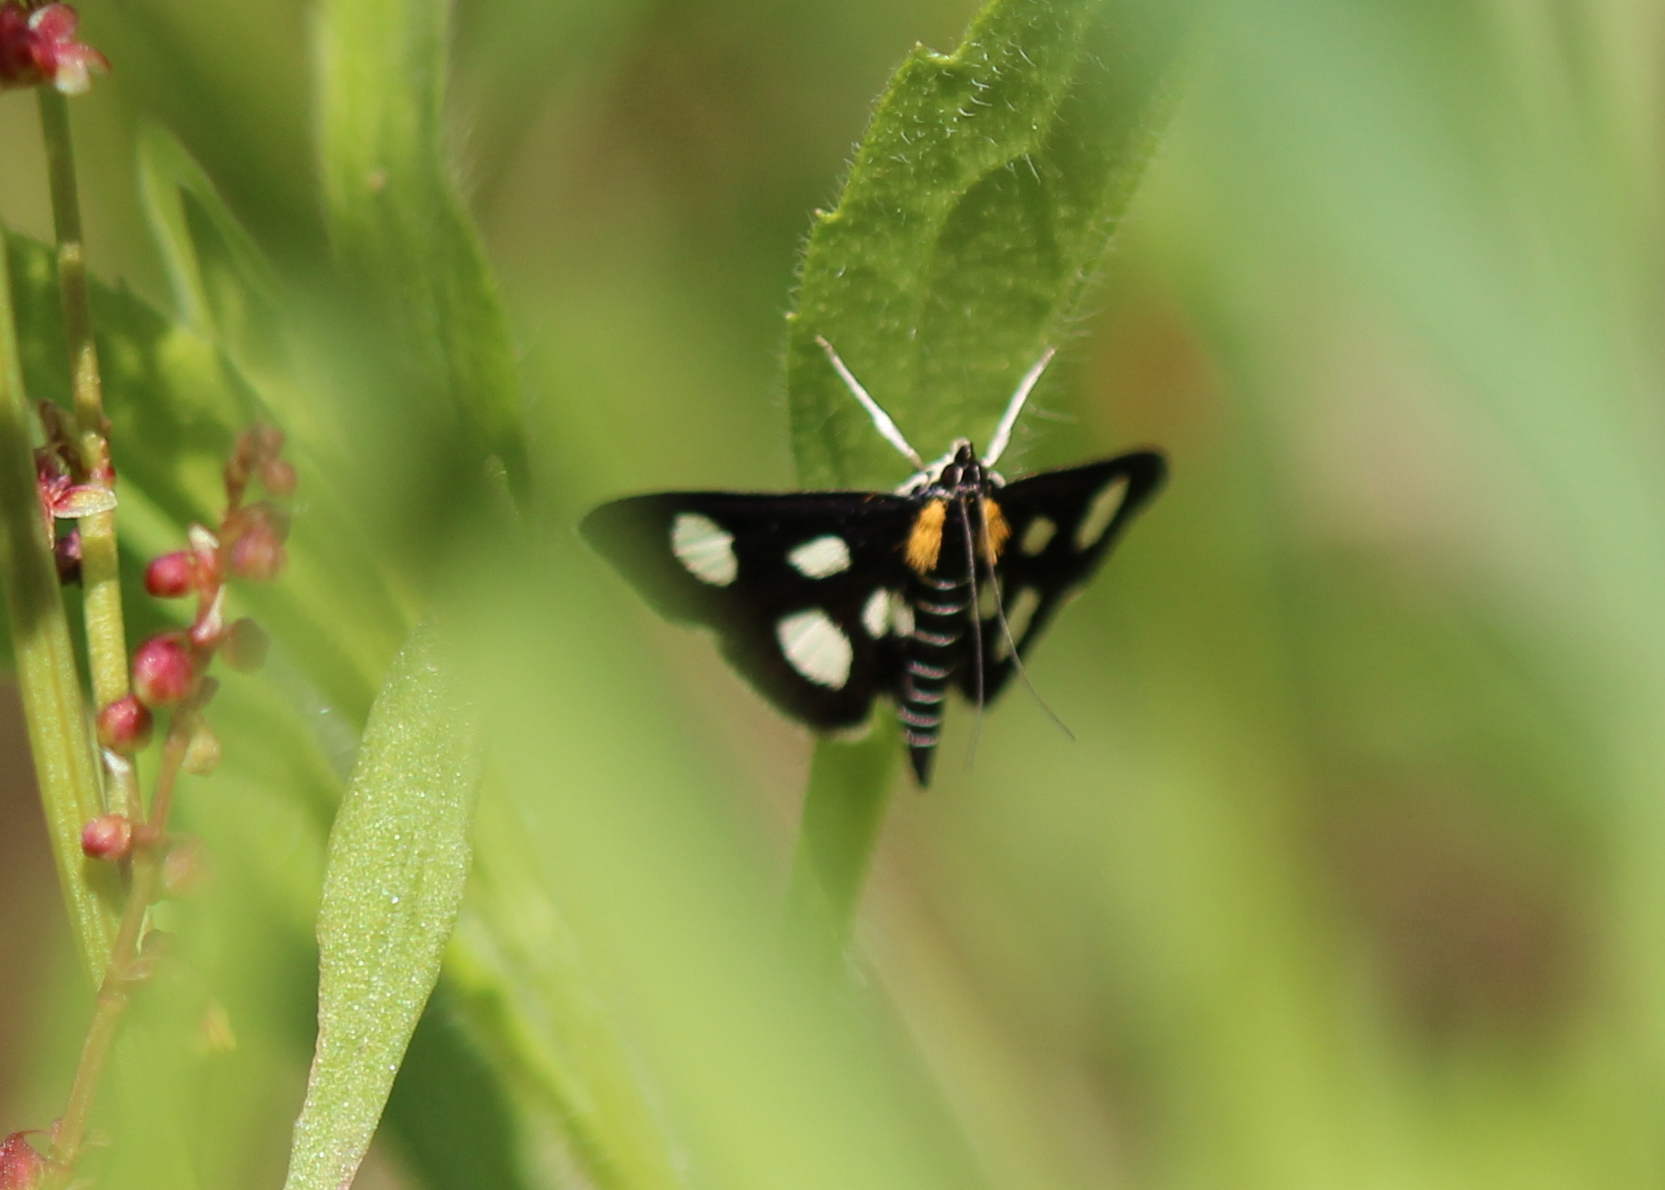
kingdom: Animalia
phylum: Arthropoda
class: Insecta
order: Lepidoptera
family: Crambidae
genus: Anania
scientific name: Anania funebris
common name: White-spotted sable moth
